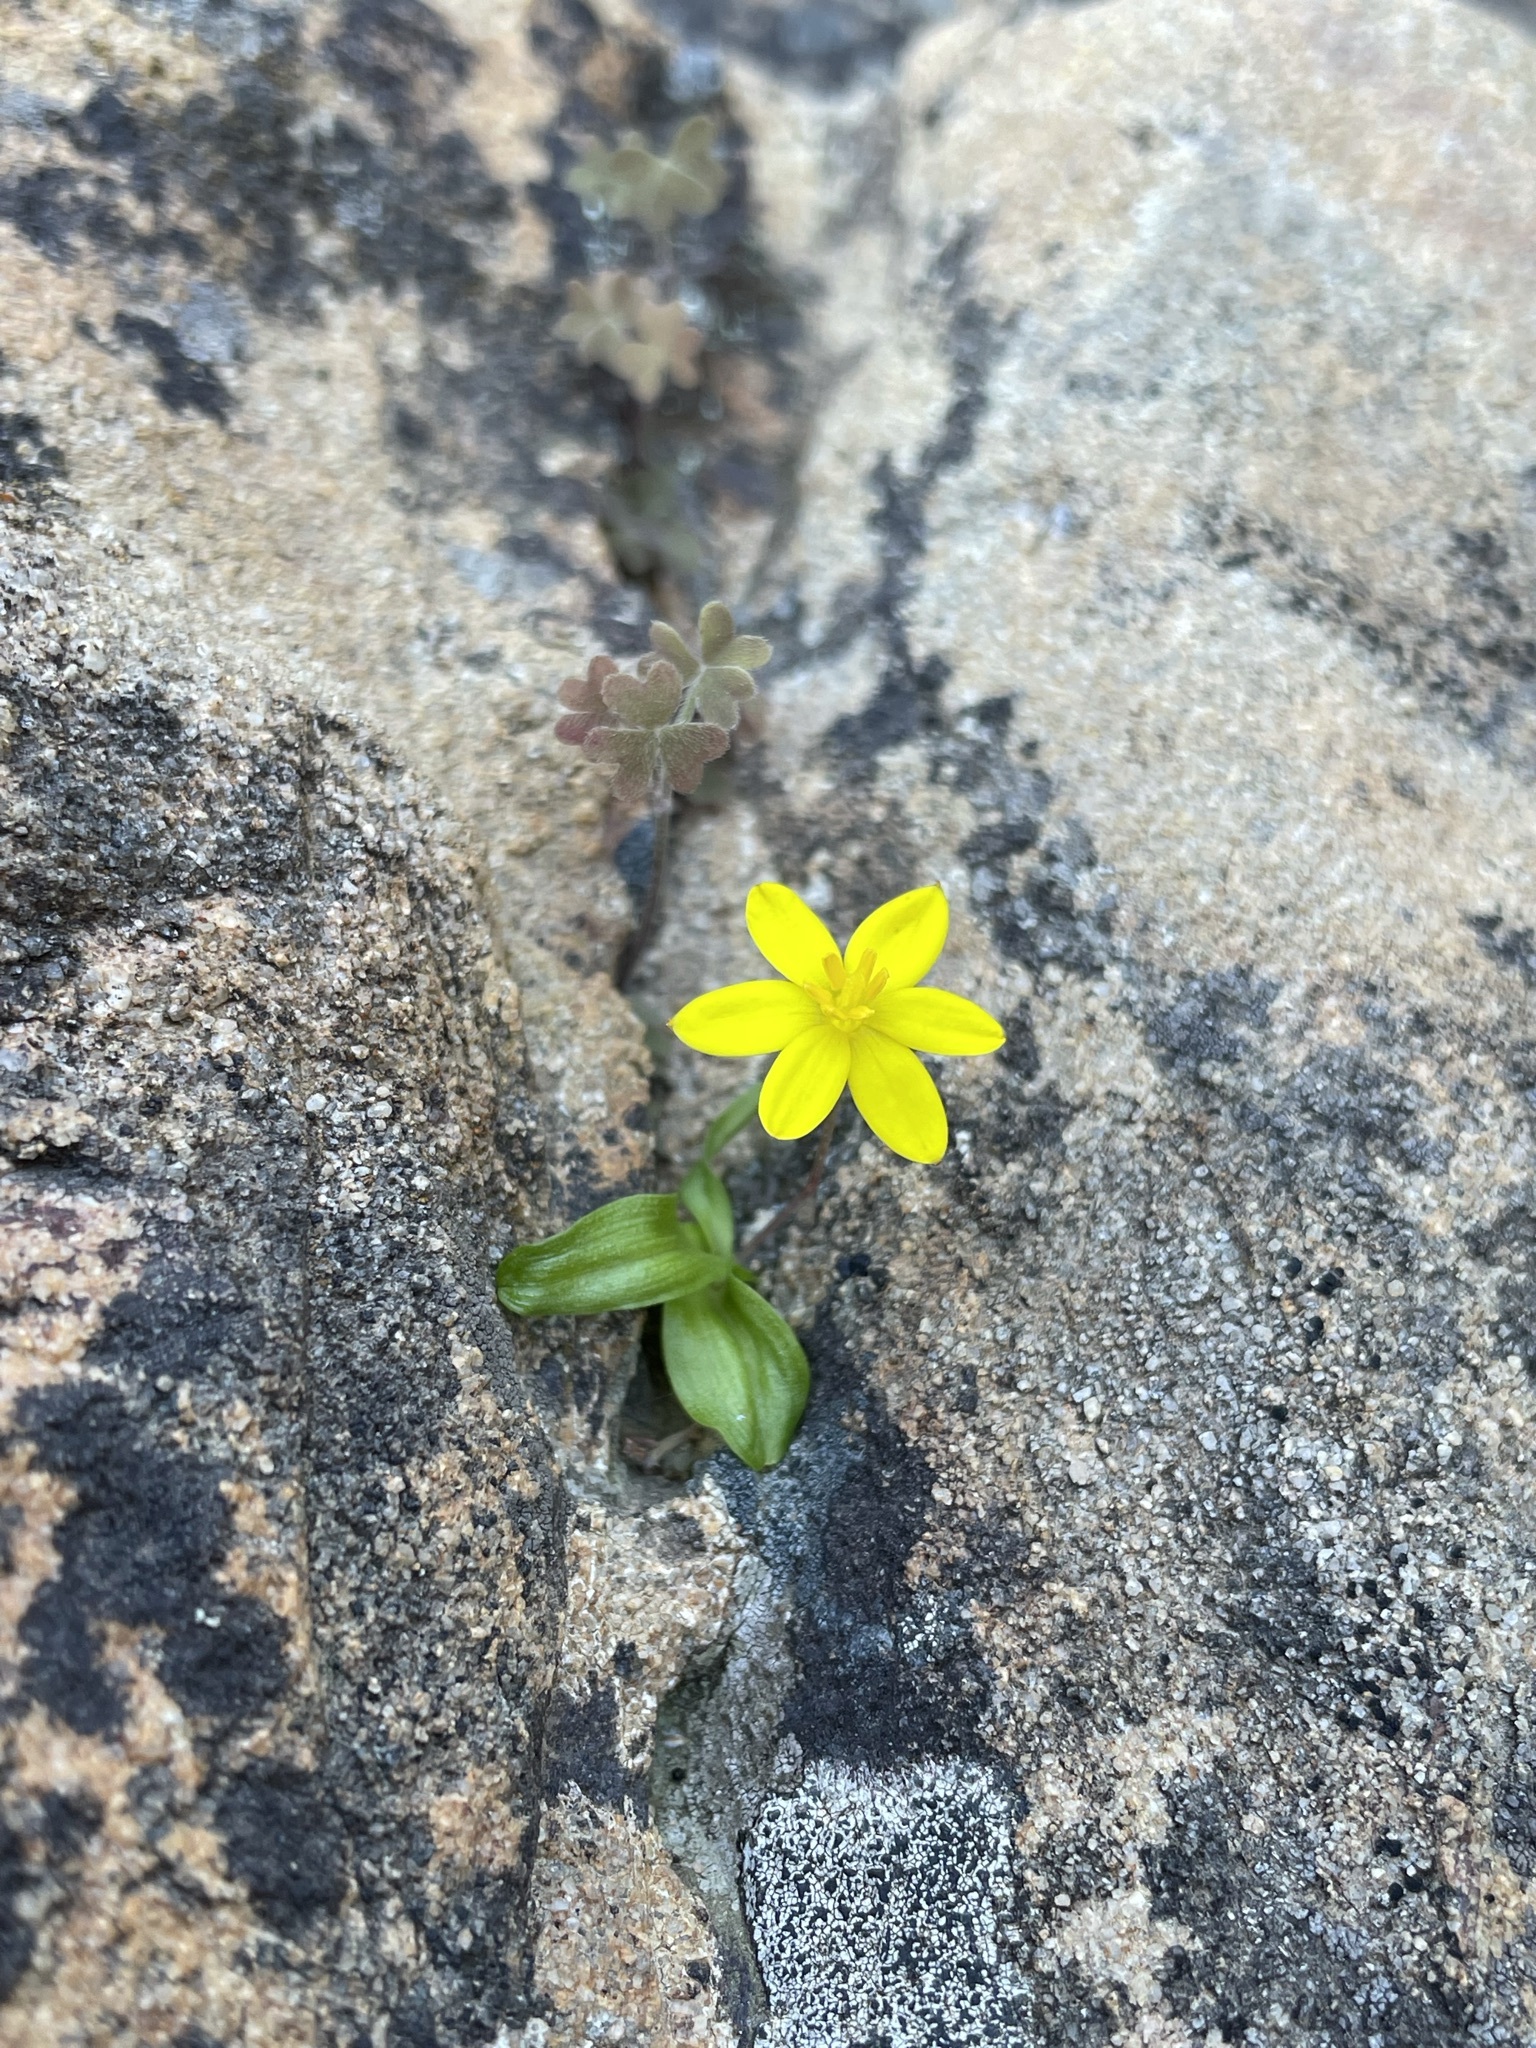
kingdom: Plantae
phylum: Tracheophyta
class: Liliopsida
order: Asparagales
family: Hypoxidaceae
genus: Pauridia
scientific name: Pauridia gracilipes
